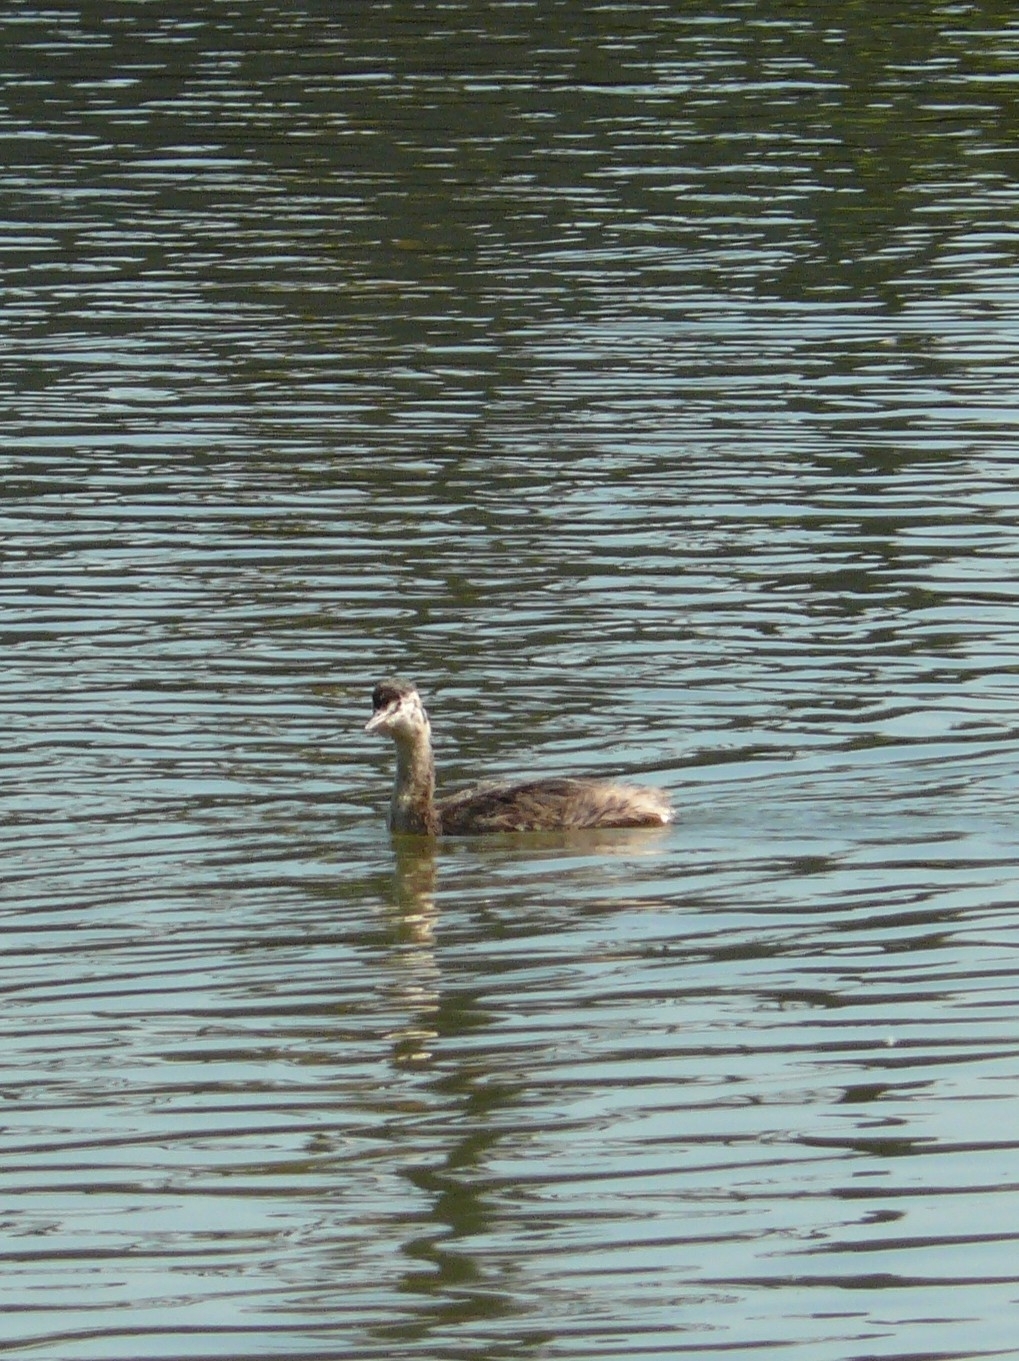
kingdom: Animalia
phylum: Chordata
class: Aves
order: Podicipediformes
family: Podicipedidae
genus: Podiceps
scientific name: Podiceps cristatus
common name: Great crested grebe
